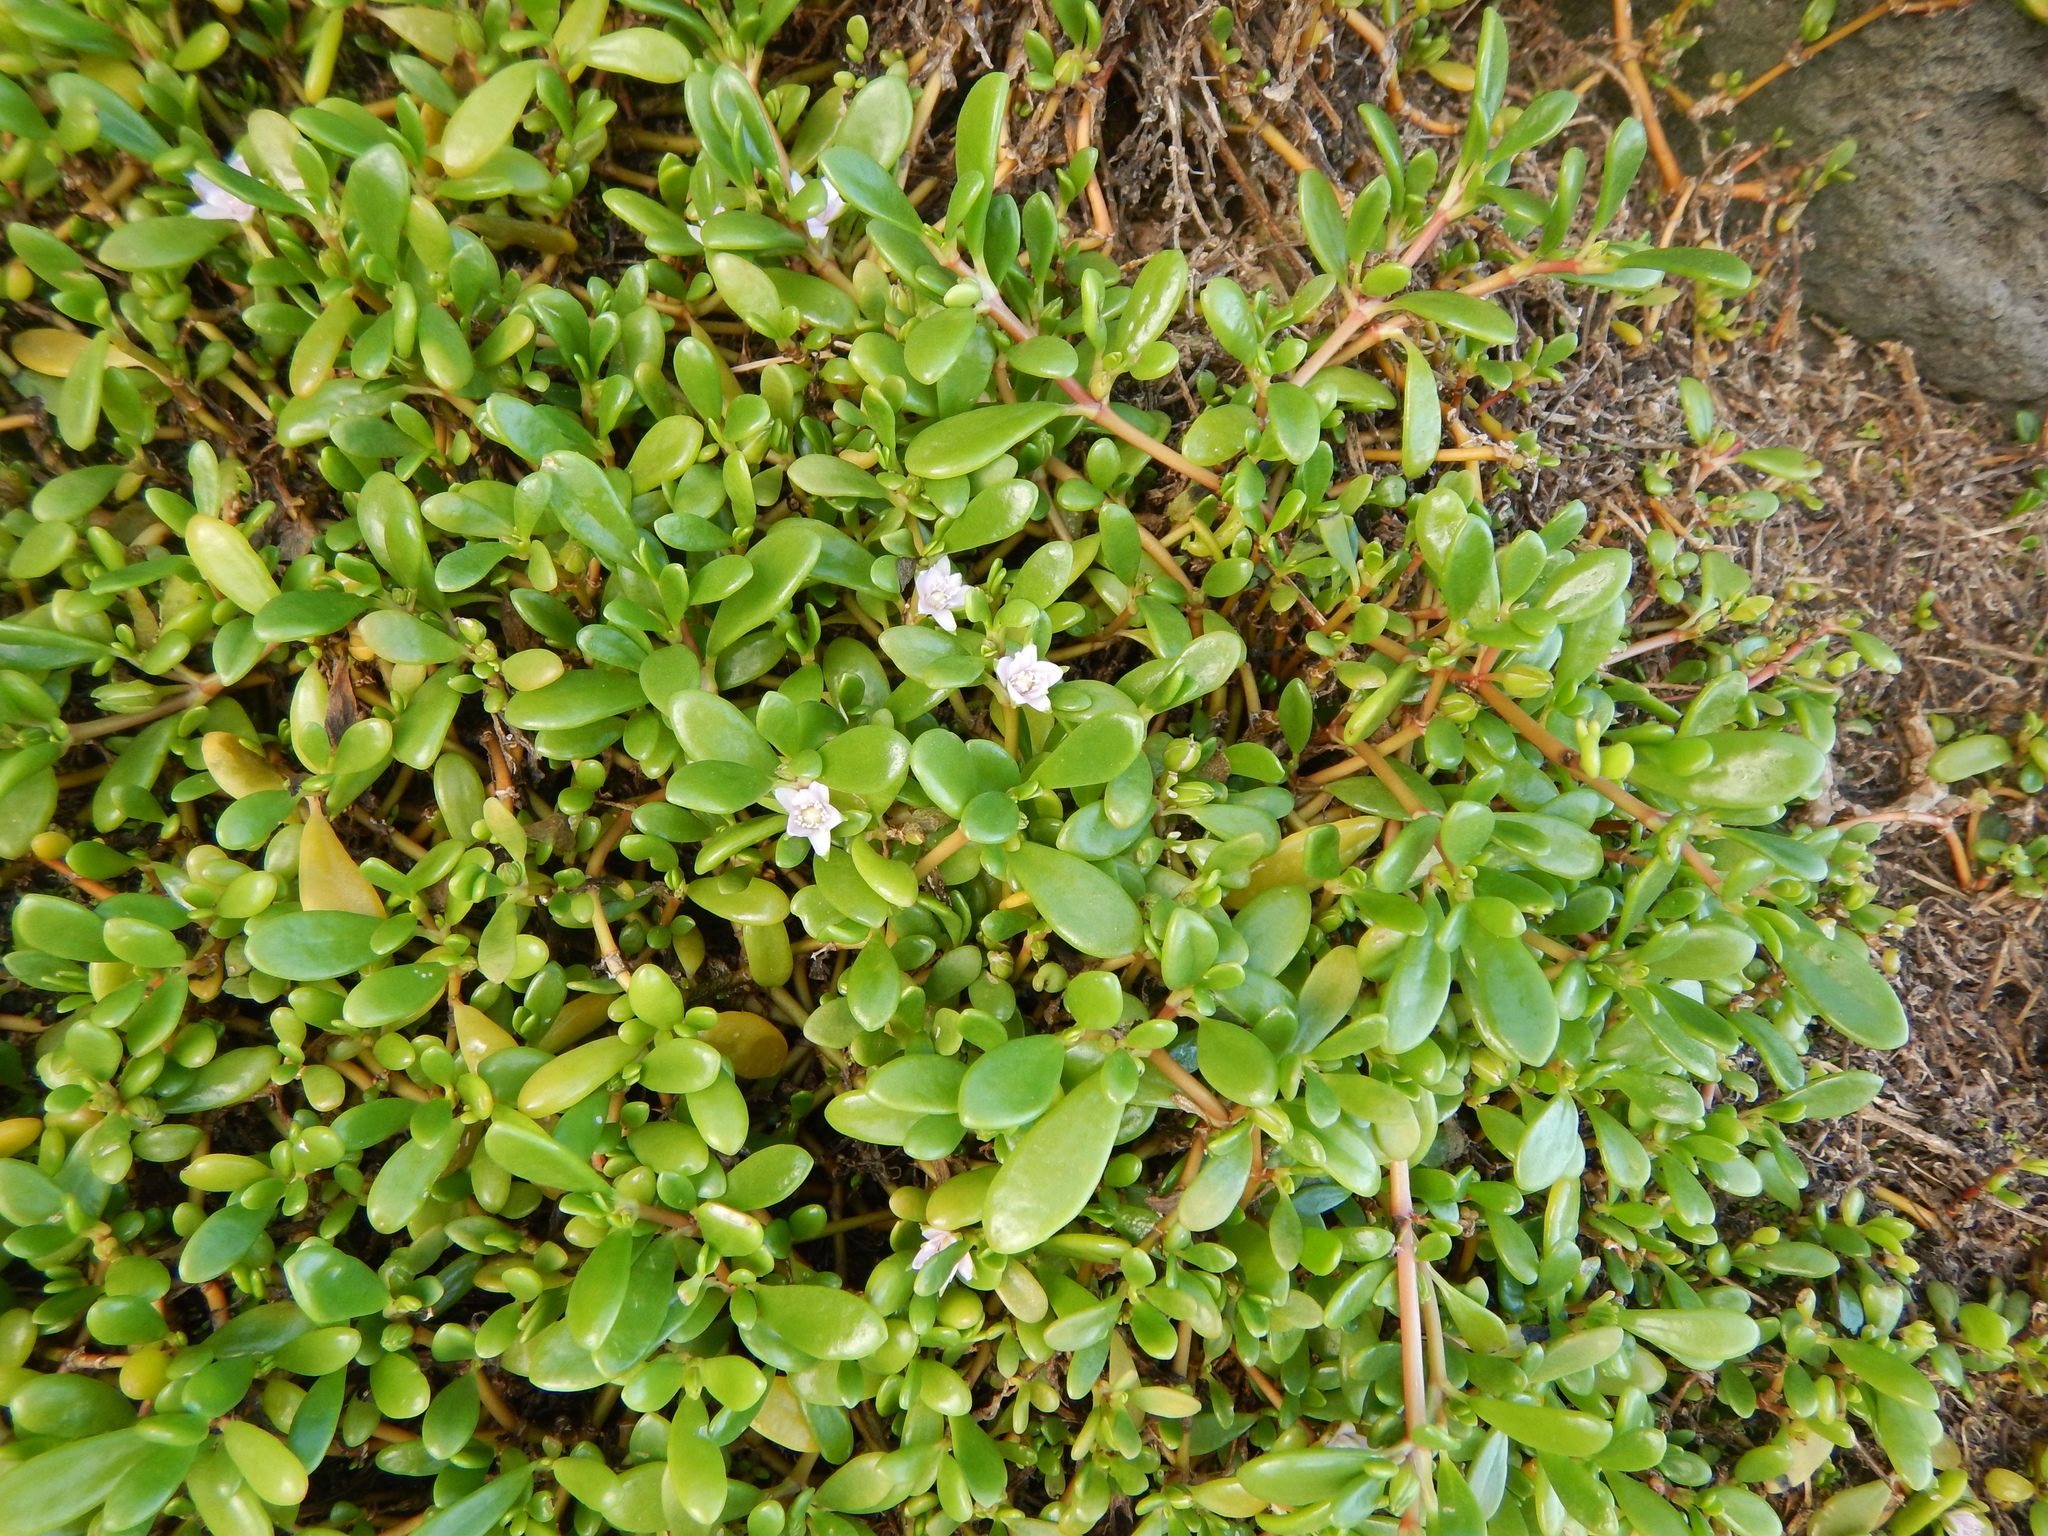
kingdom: Plantae
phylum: Tracheophyta
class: Magnoliopsida
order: Caryophyllales
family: Aizoaceae
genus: Sesuvium
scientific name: Sesuvium portulacastrum
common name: Sea-purslane
